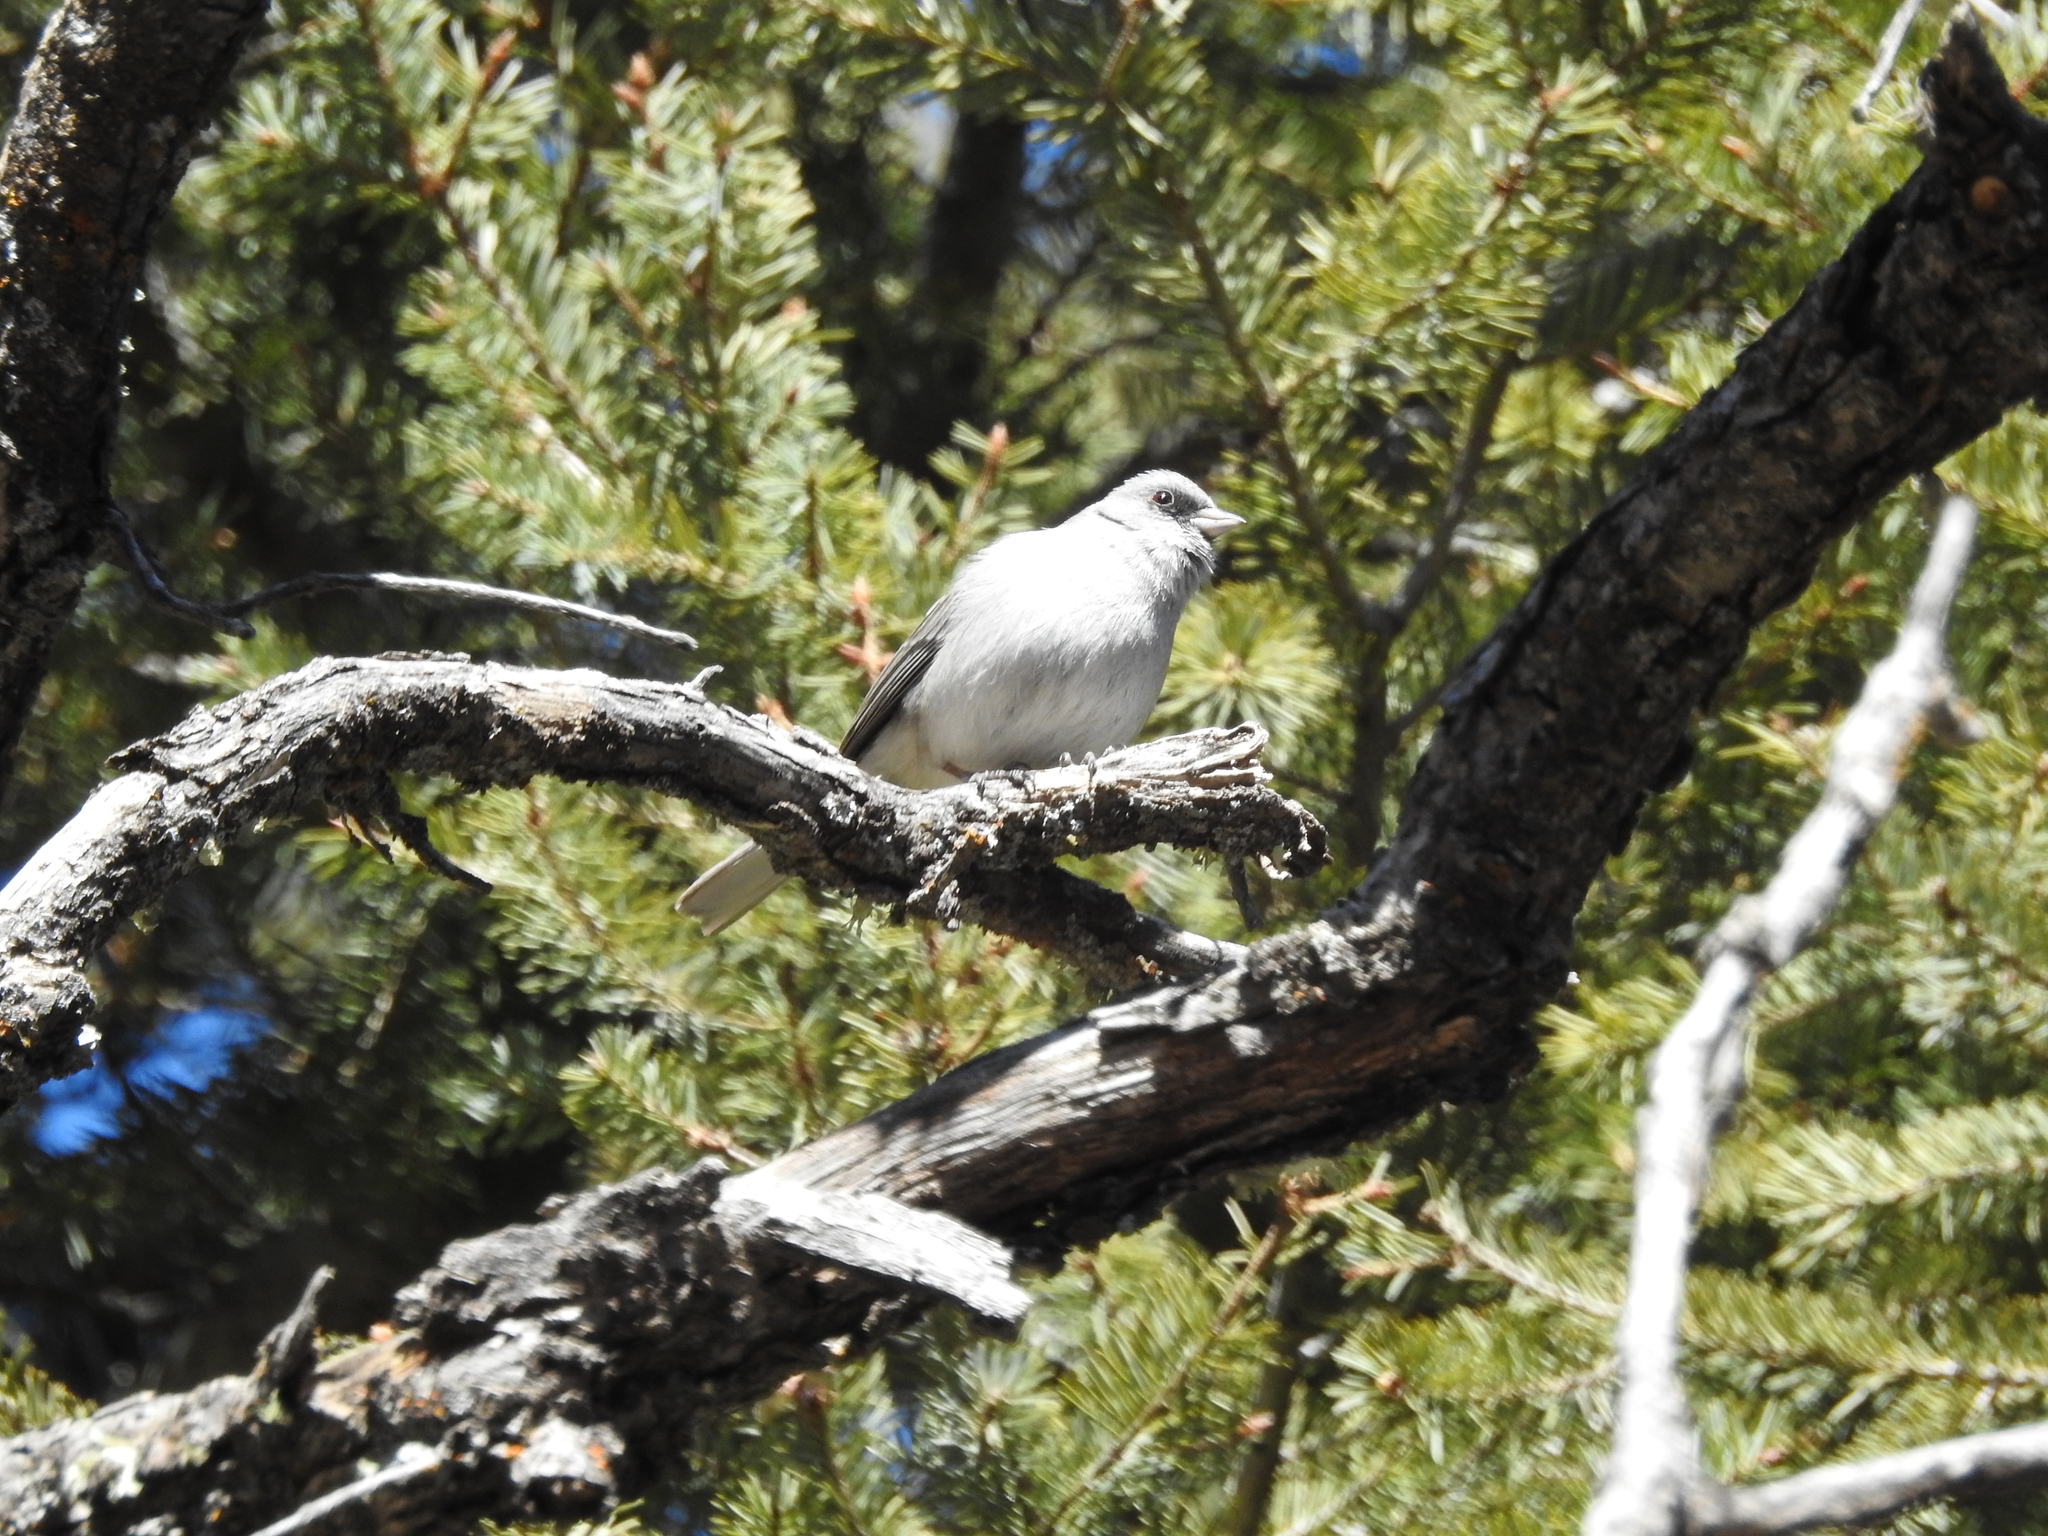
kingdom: Animalia
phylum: Chordata
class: Aves
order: Passeriformes
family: Passerellidae
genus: Junco
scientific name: Junco hyemalis
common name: Dark-eyed junco
